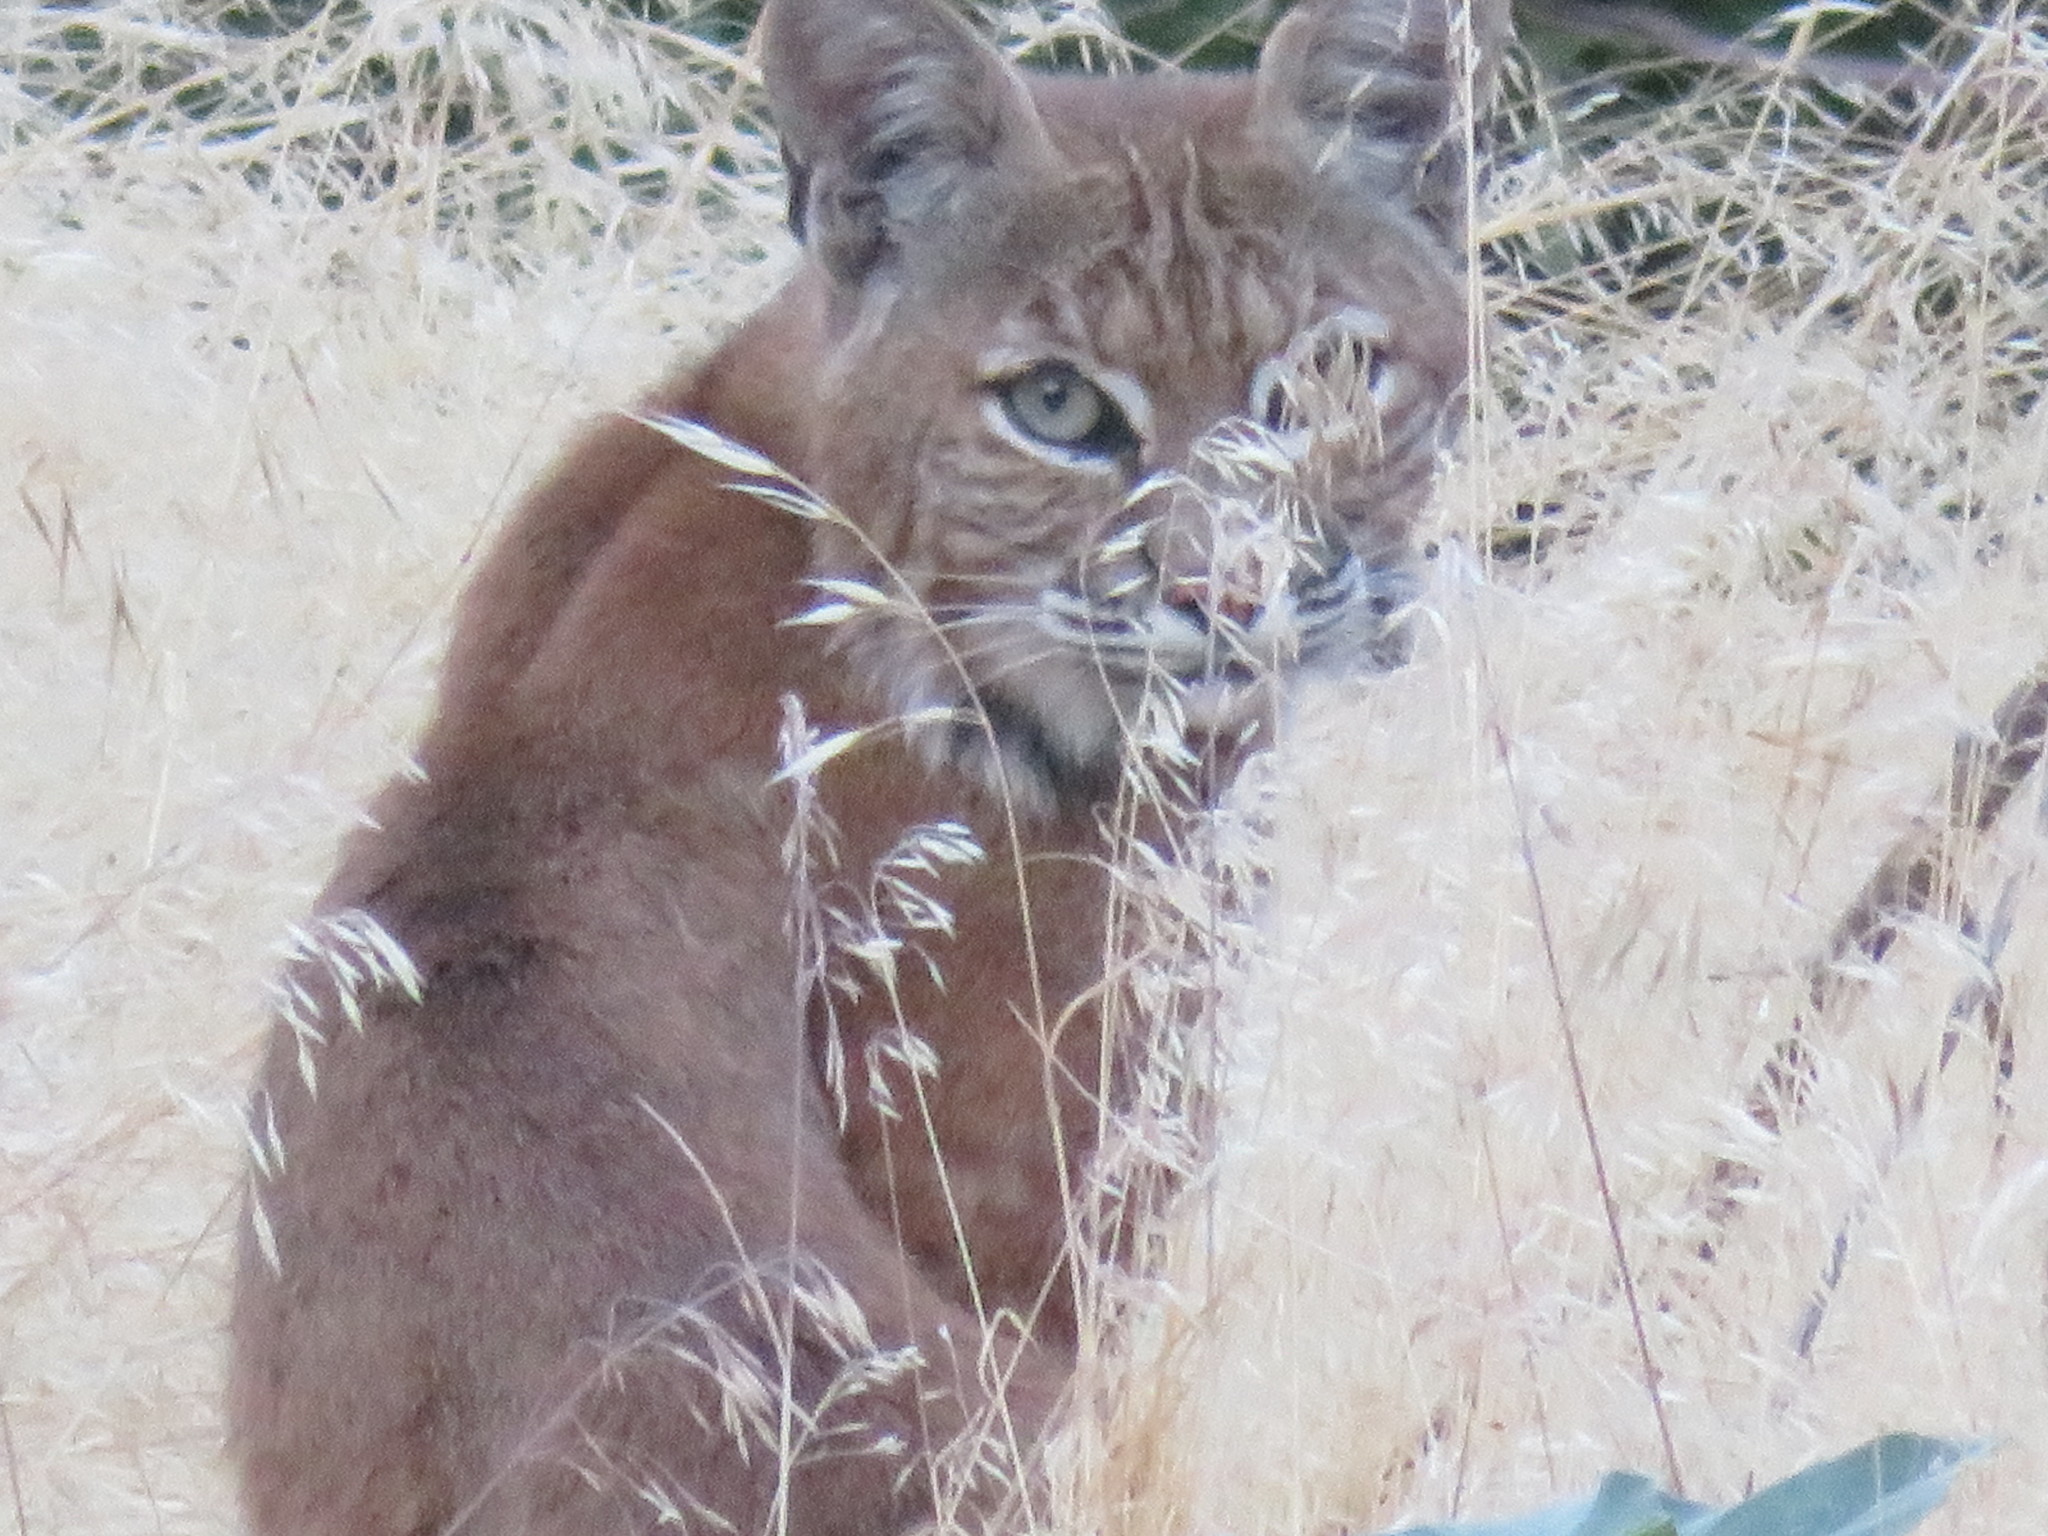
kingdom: Animalia
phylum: Chordata
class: Mammalia
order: Carnivora
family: Felidae
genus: Lynx
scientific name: Lynx rufus
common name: Bobcat
